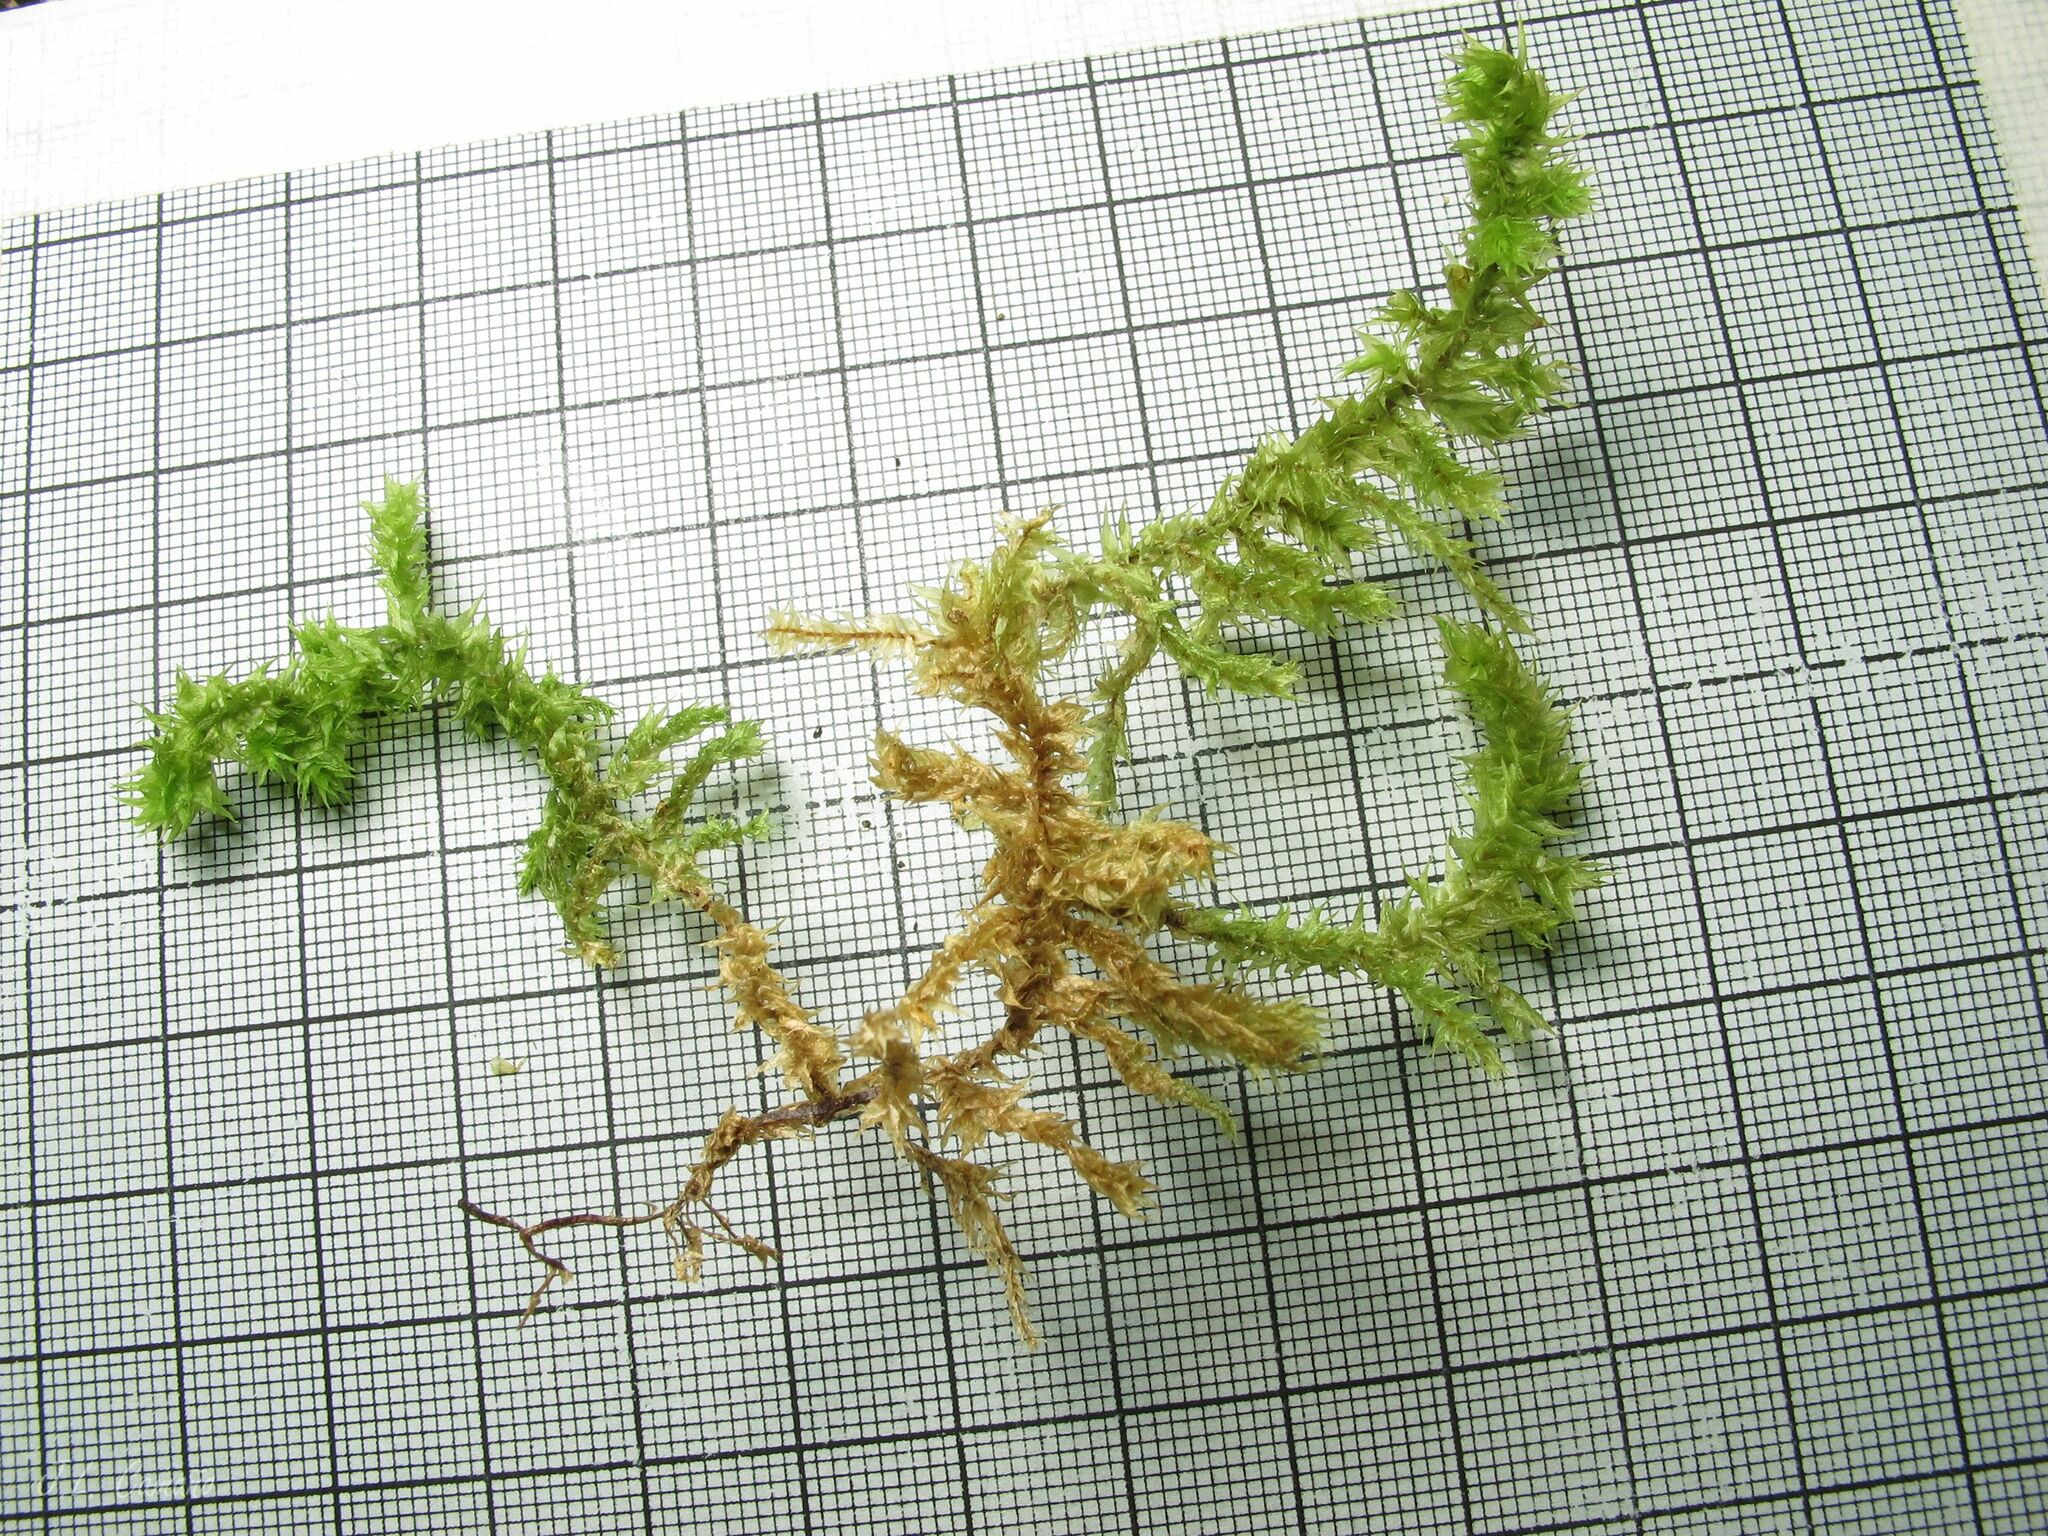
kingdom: Plantae
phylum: Bryophyta
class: Bryopsida
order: Hypnales
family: Hylocomiaceae
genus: Hylocomiadelphus
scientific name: Hylocomiadelphus triquetrus
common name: Rough goose neck moss
